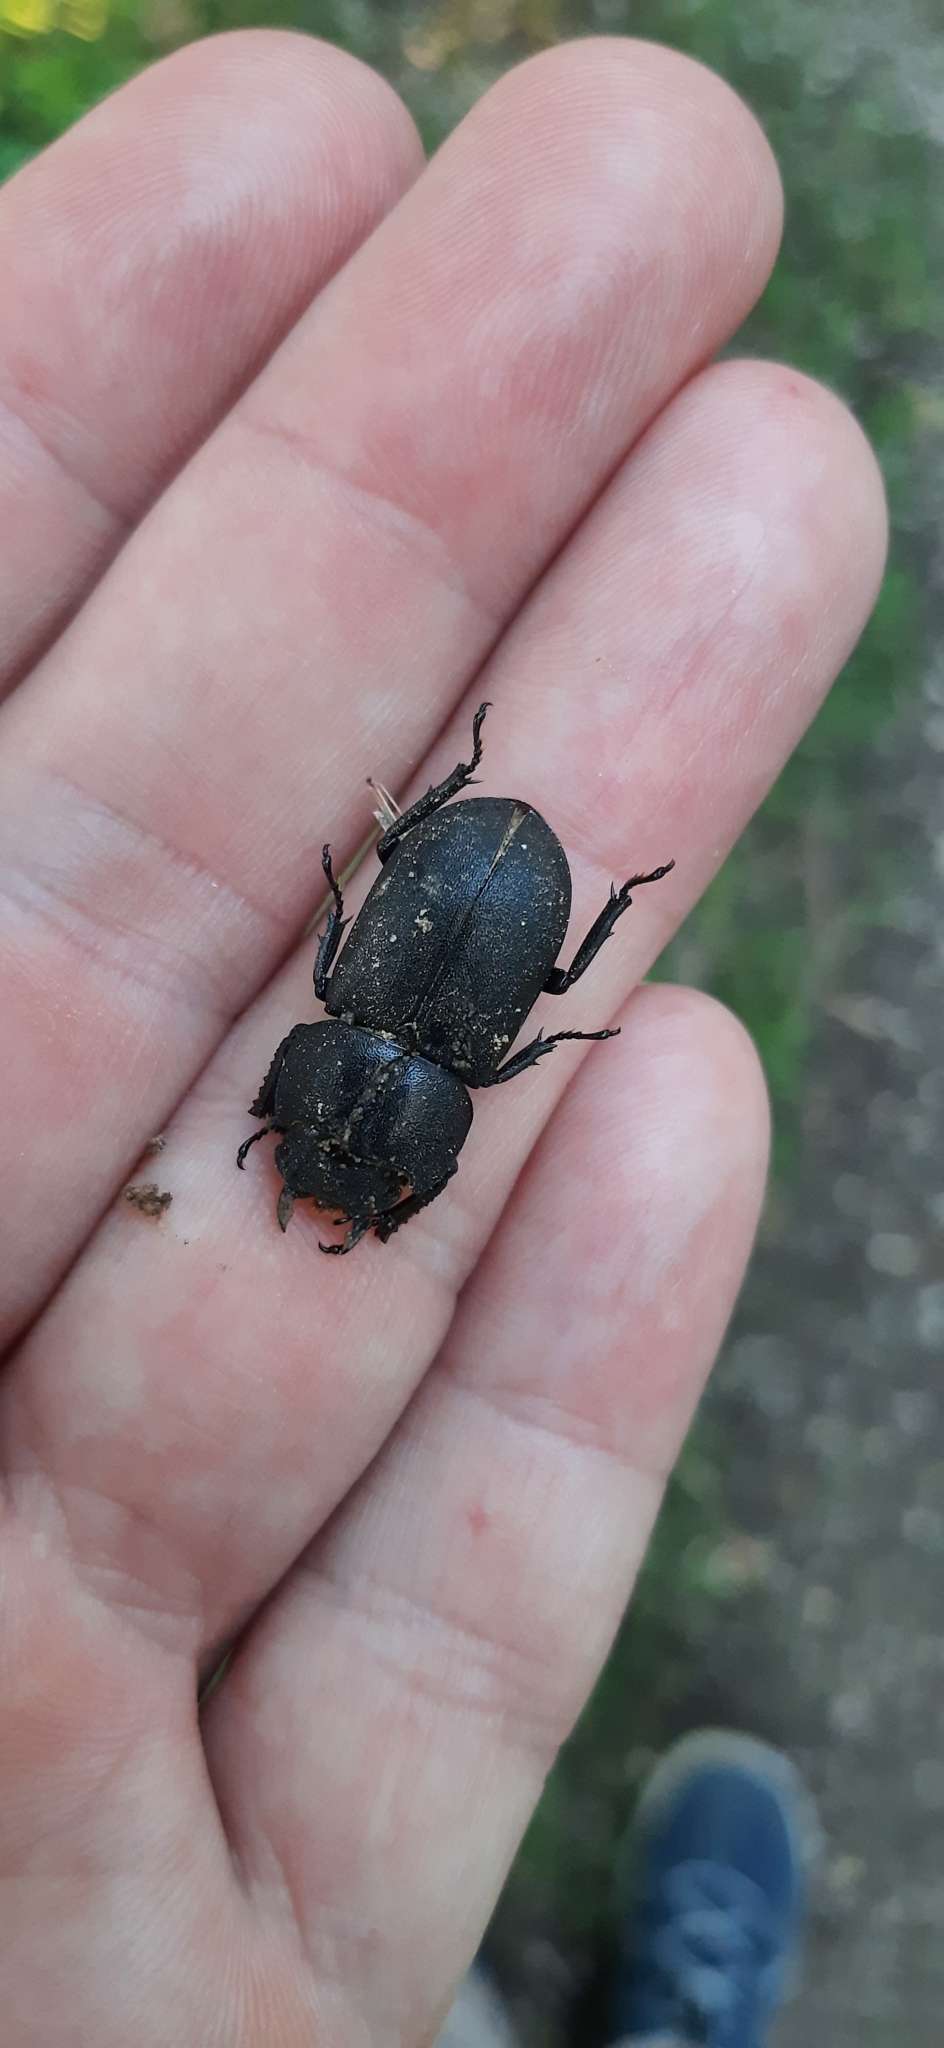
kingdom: Animalia
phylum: Arthropoda
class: Insecta
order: Coleoptera
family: Lucanidae
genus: Dorcus
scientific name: Dorcus parallelipipedus
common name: Lesser stag beetle
